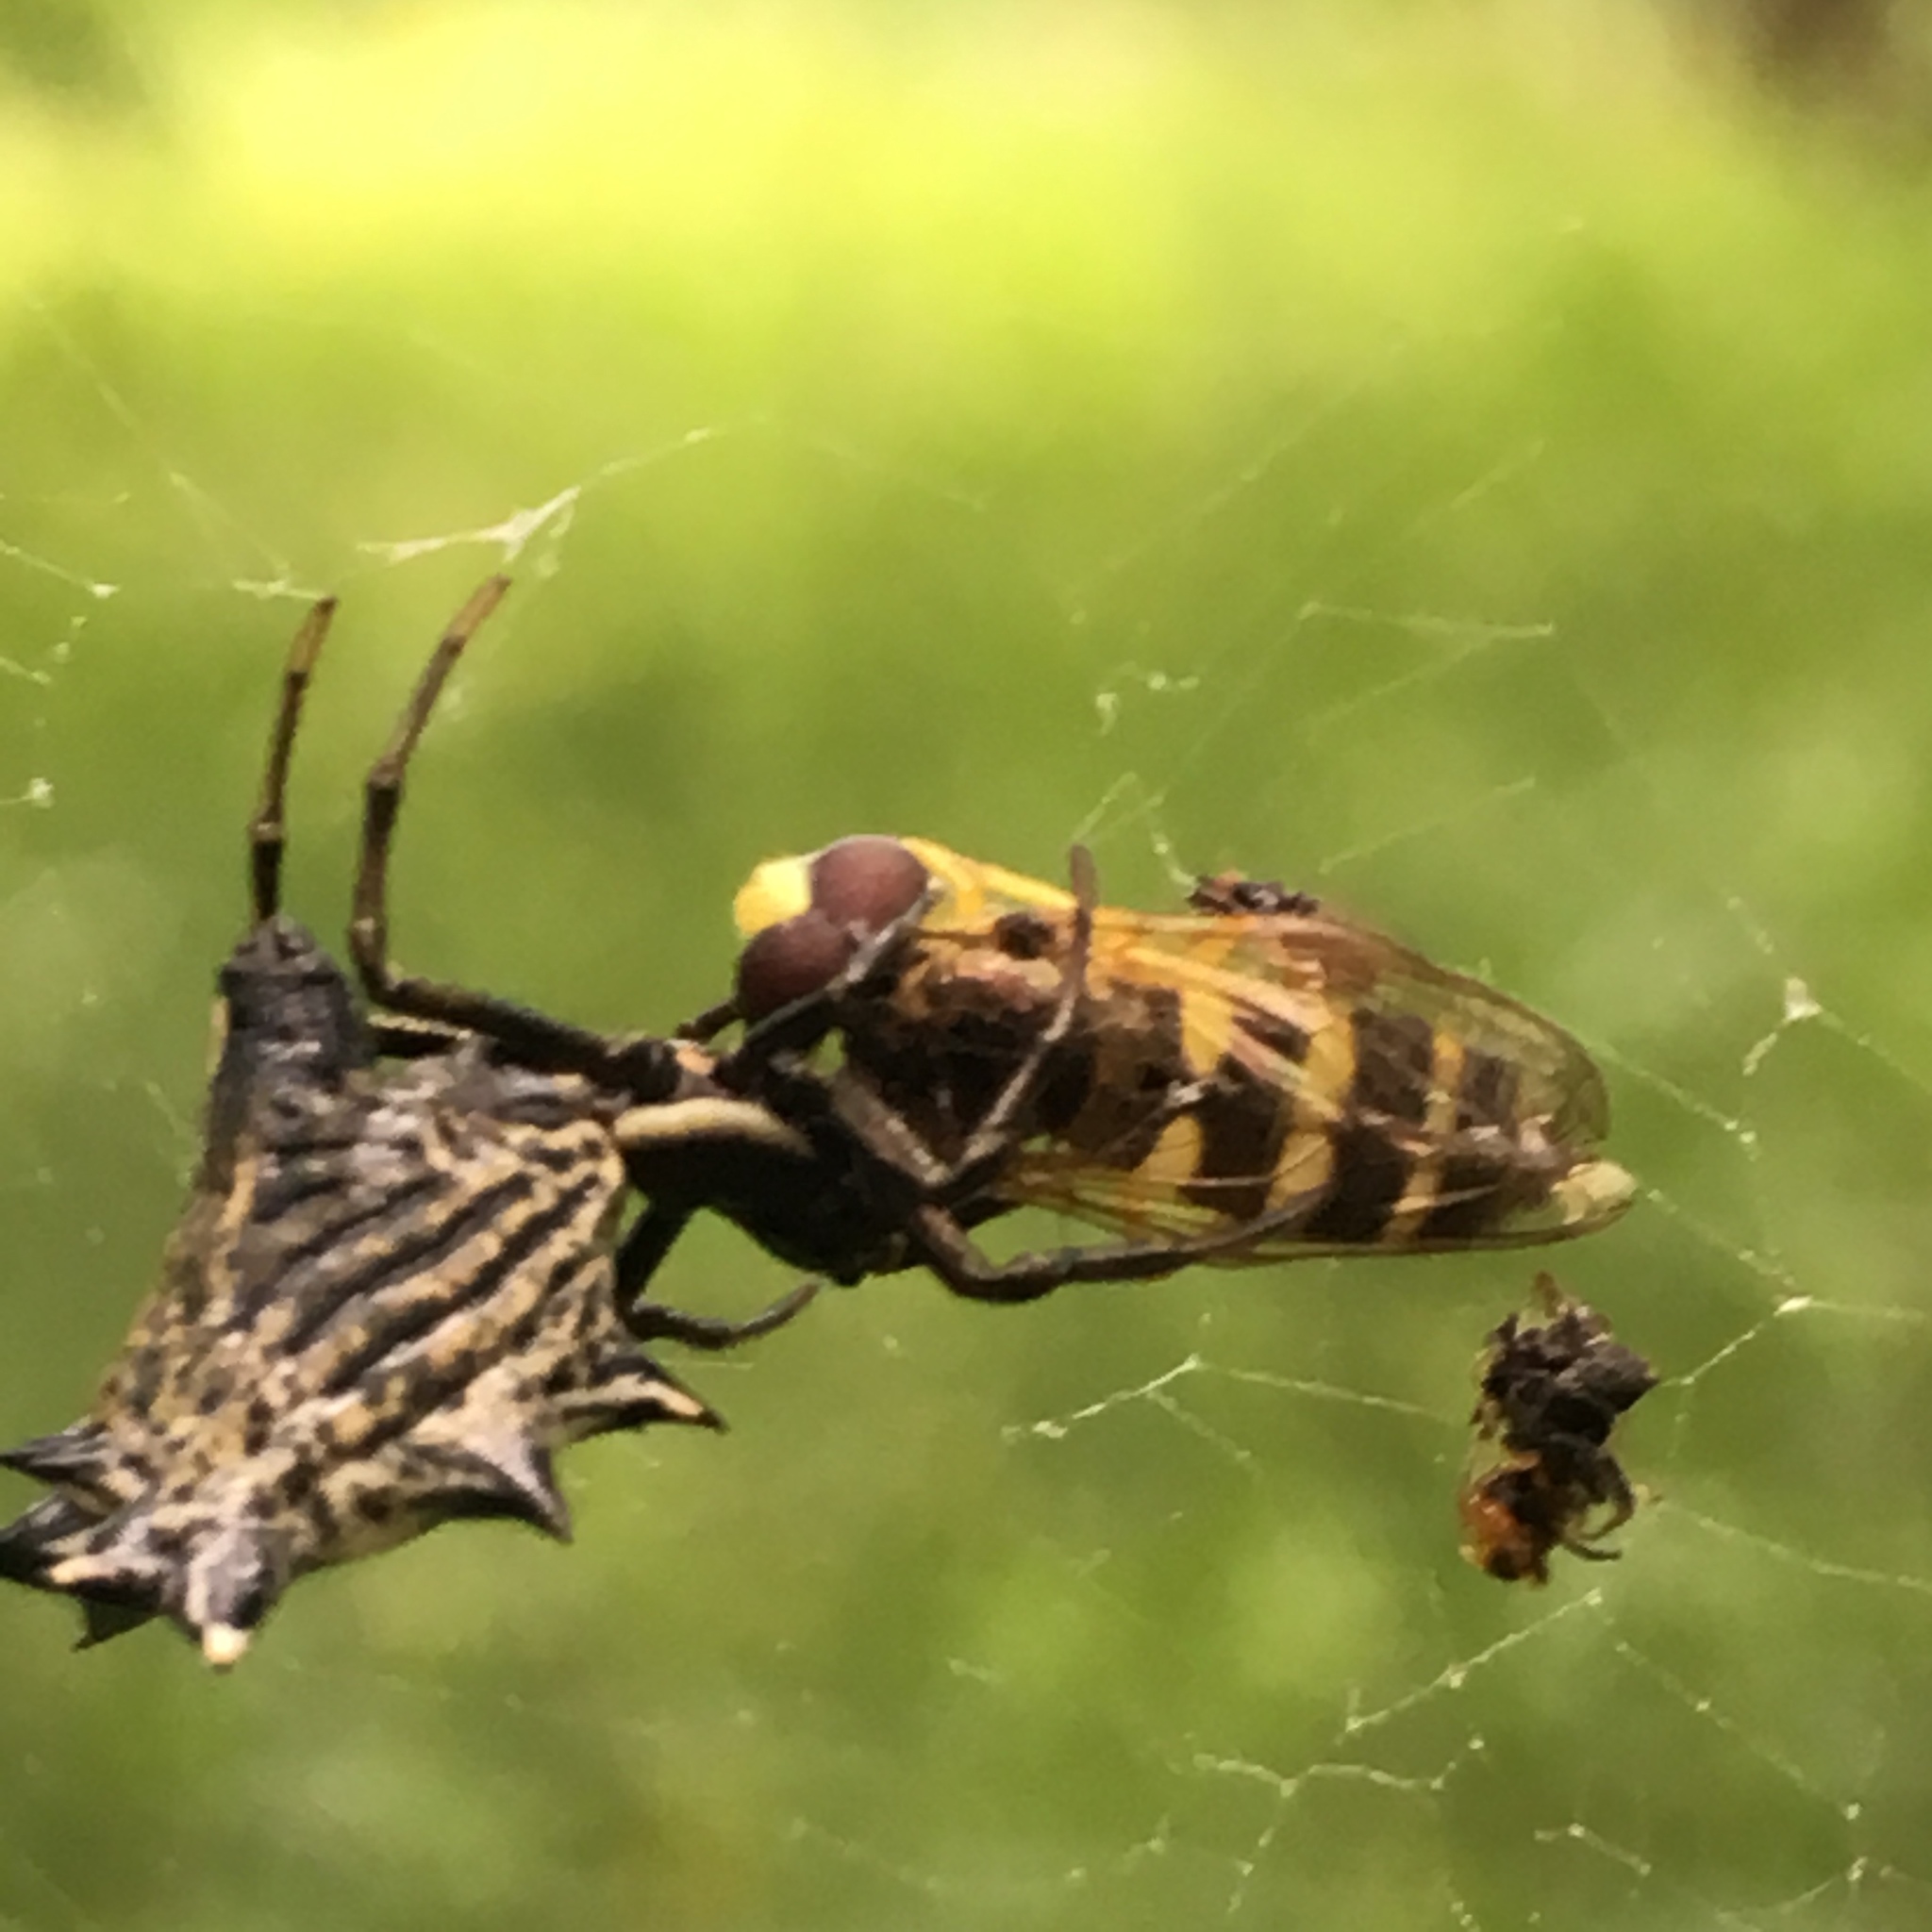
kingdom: Animalia
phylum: Arthropoda
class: Arachnida
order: Araneae
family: Araneidae
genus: Micrathena
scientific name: Micrathena gracilis
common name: Orb weavers
